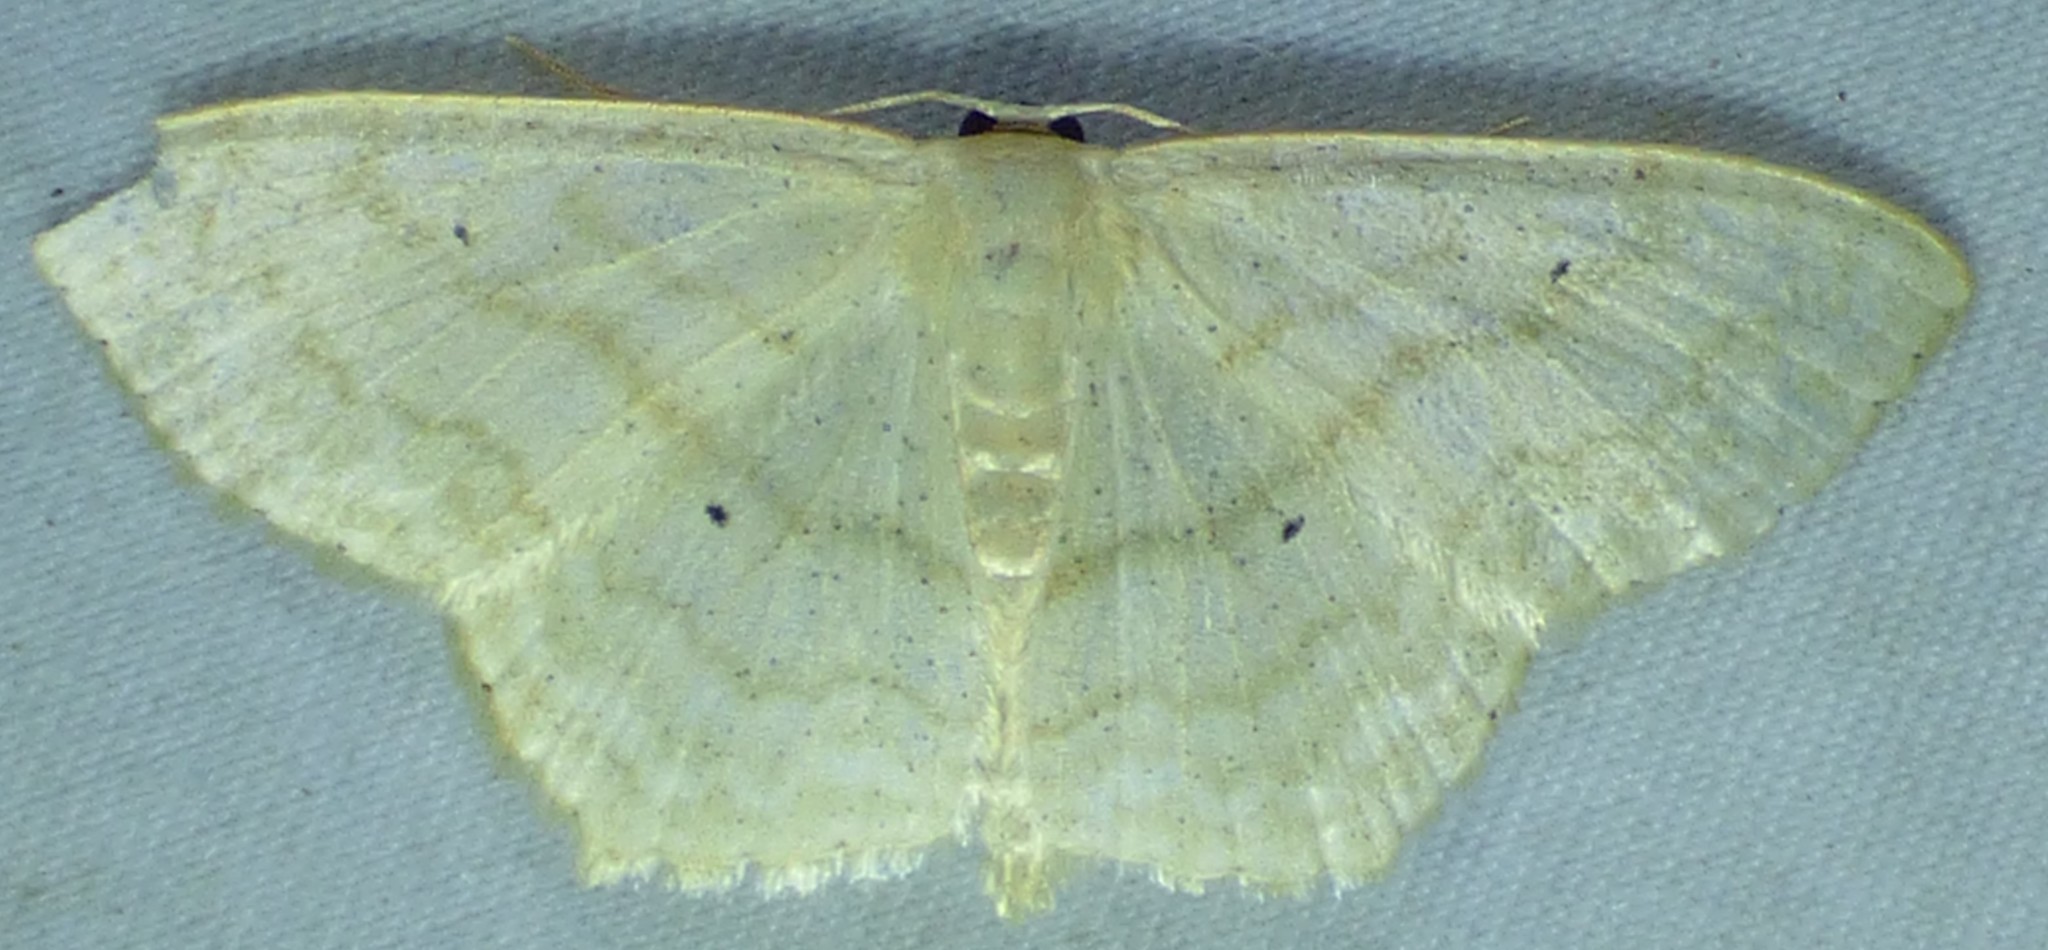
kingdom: Animalia
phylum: Arthropoda
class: Insecta
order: Lepidoptera
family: Geometridae
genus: Scopula
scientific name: Scopula limboundata
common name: Large lace border
